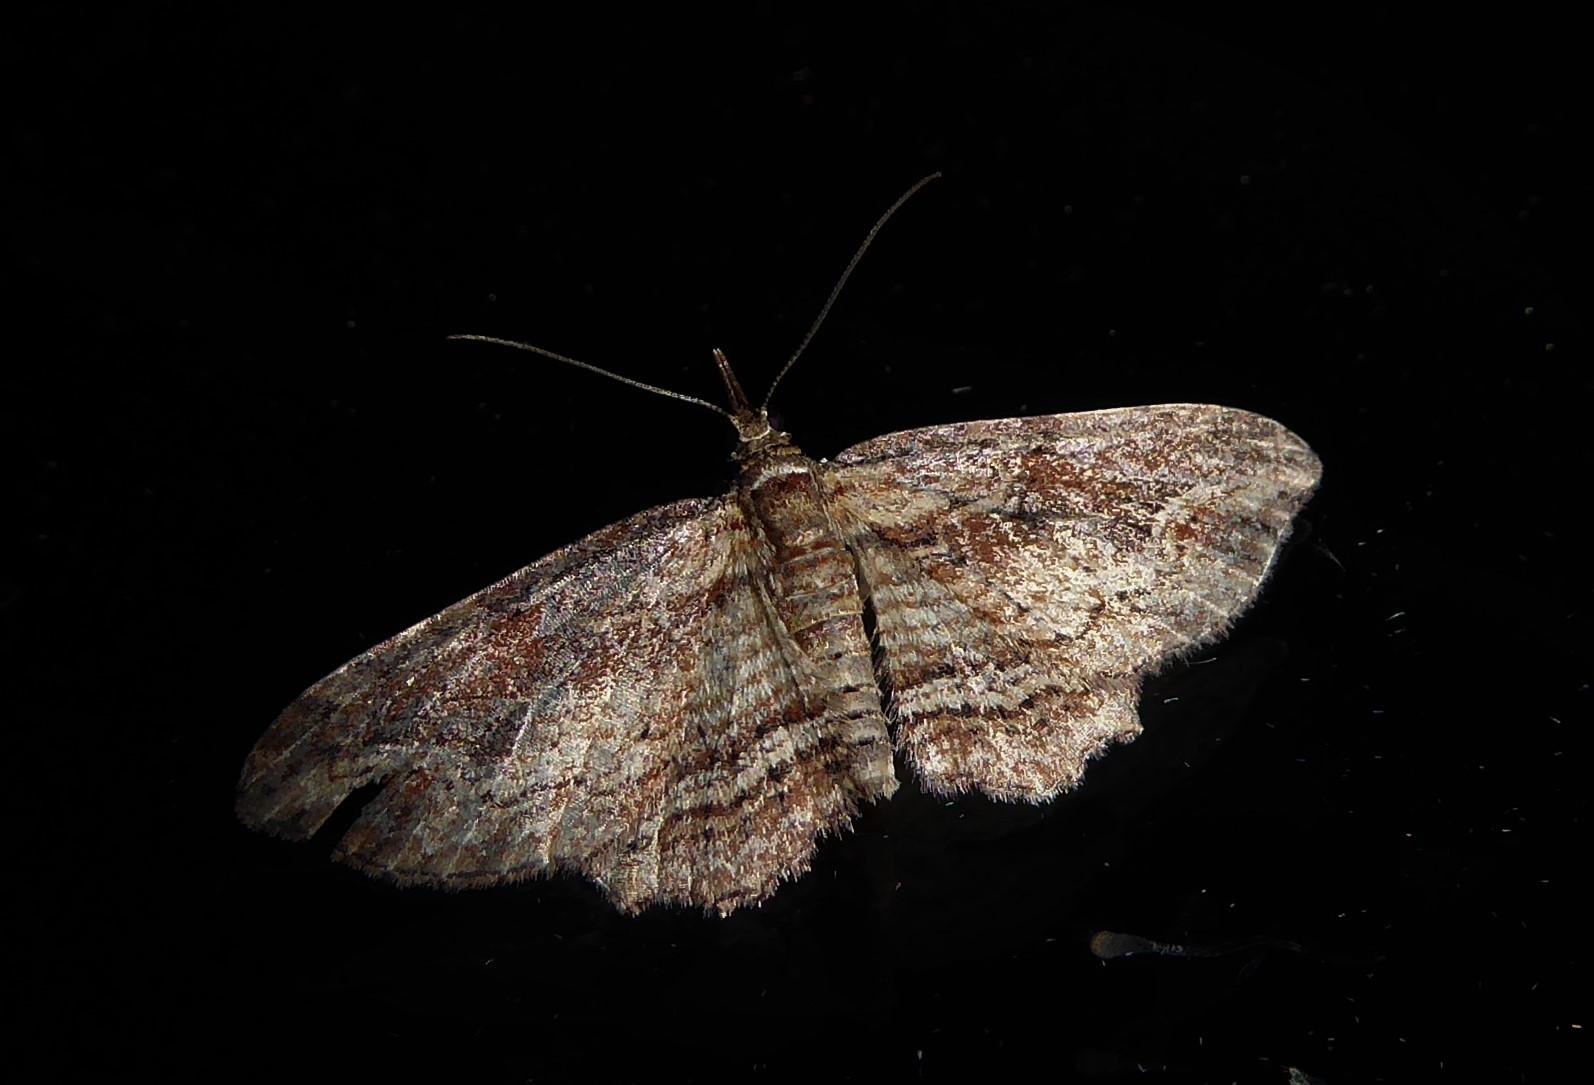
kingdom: Animalia
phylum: Arthropoda
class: Insecta
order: Lepidoptera
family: Geometridae
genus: Chloroclystis
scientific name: Chloroclystis filata
